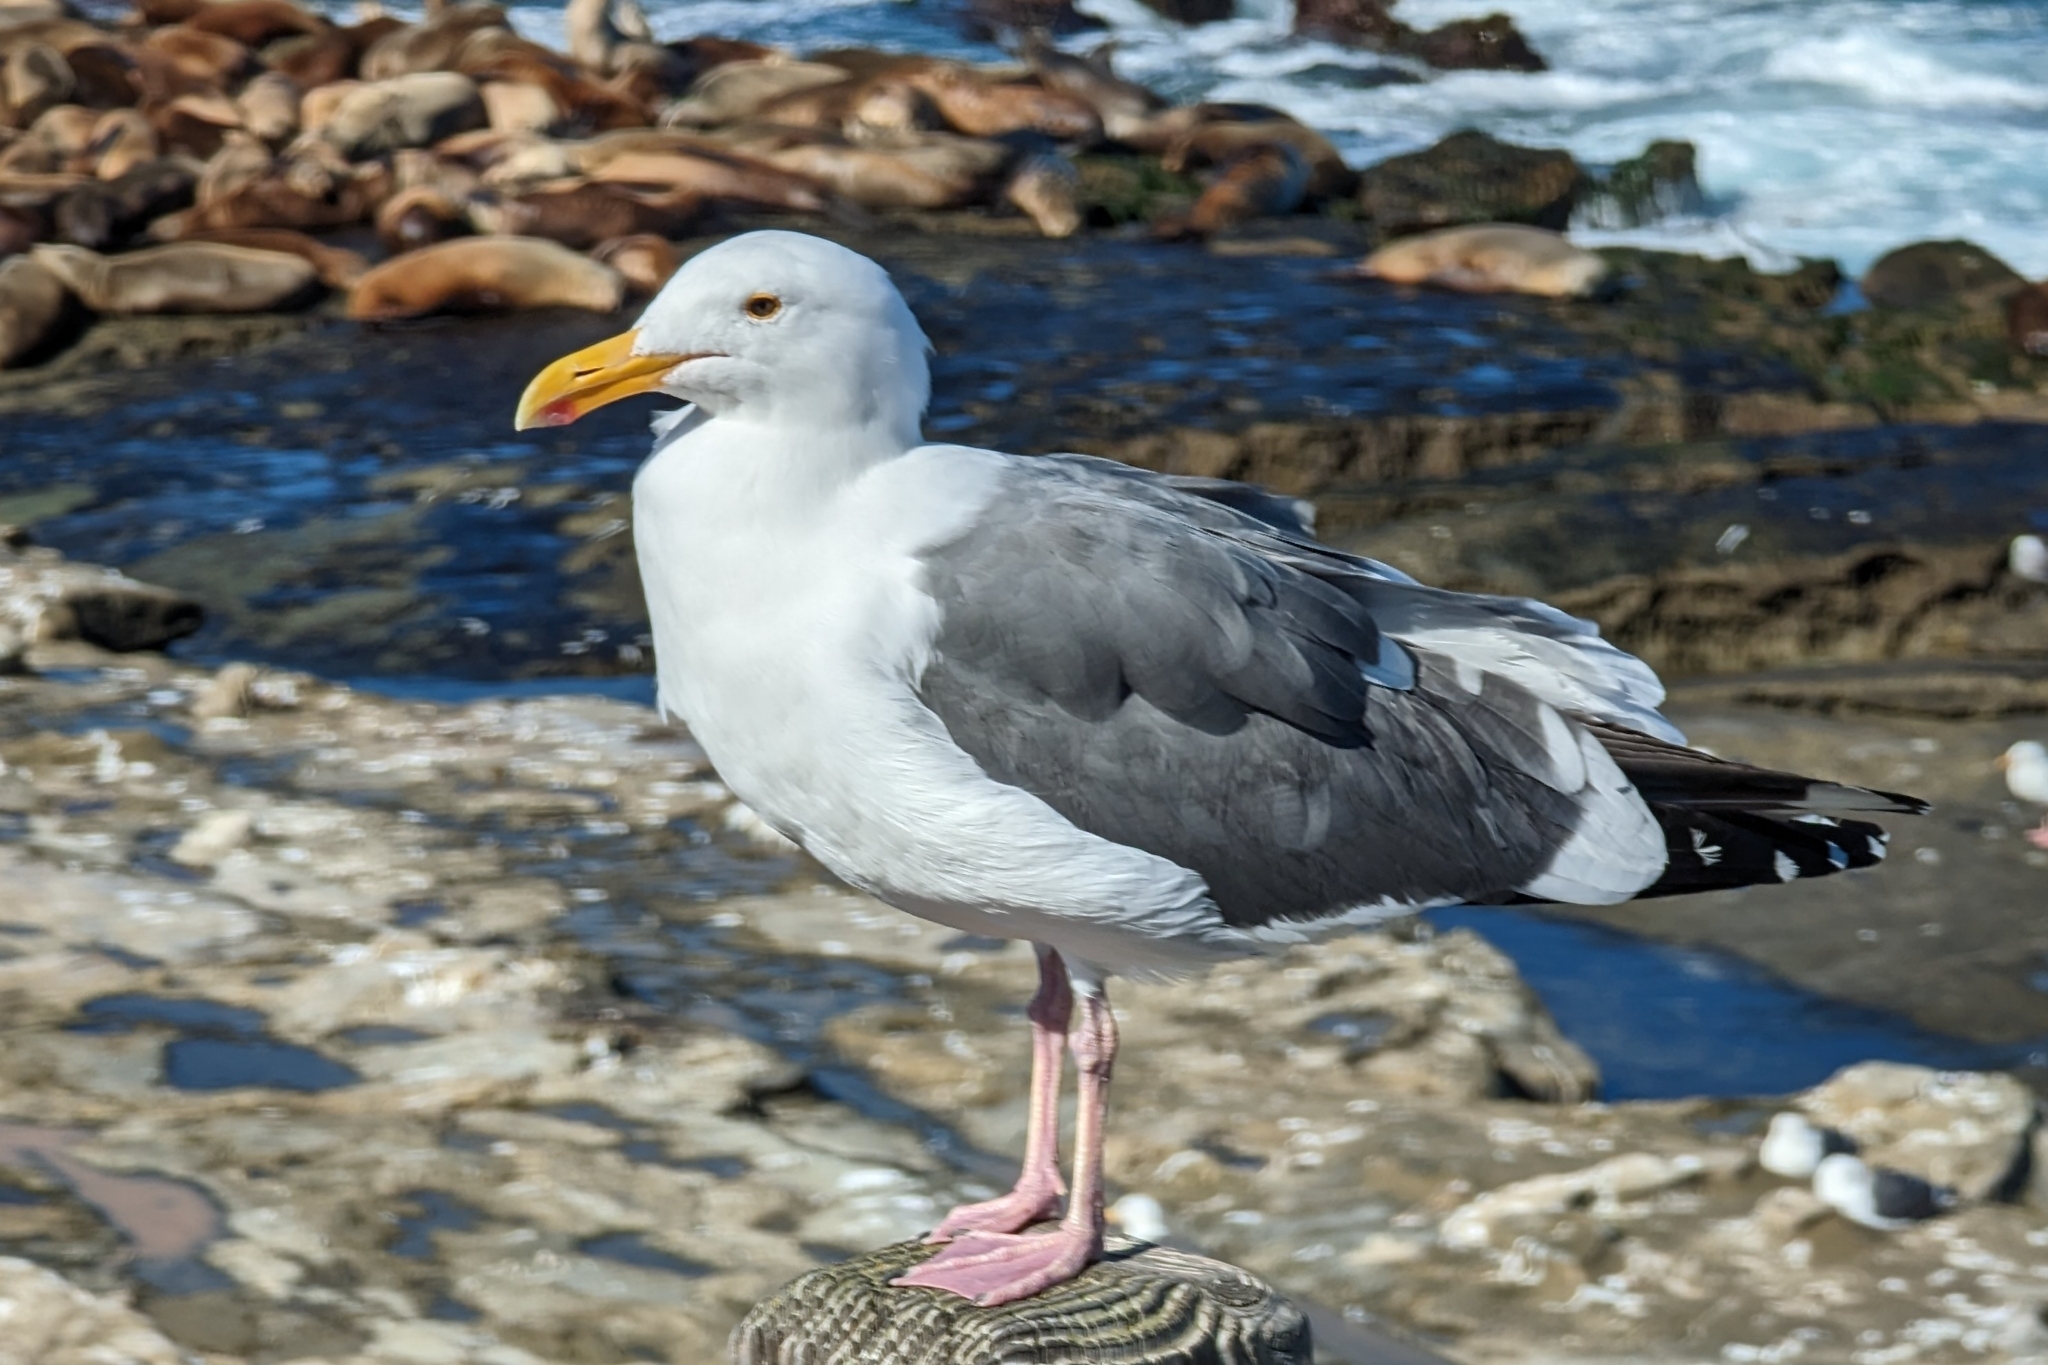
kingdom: Animalia
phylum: Chordata
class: Aves
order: Charadriiformes
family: Laridae
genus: Larus
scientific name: Larus occidentalis
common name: Western gull
